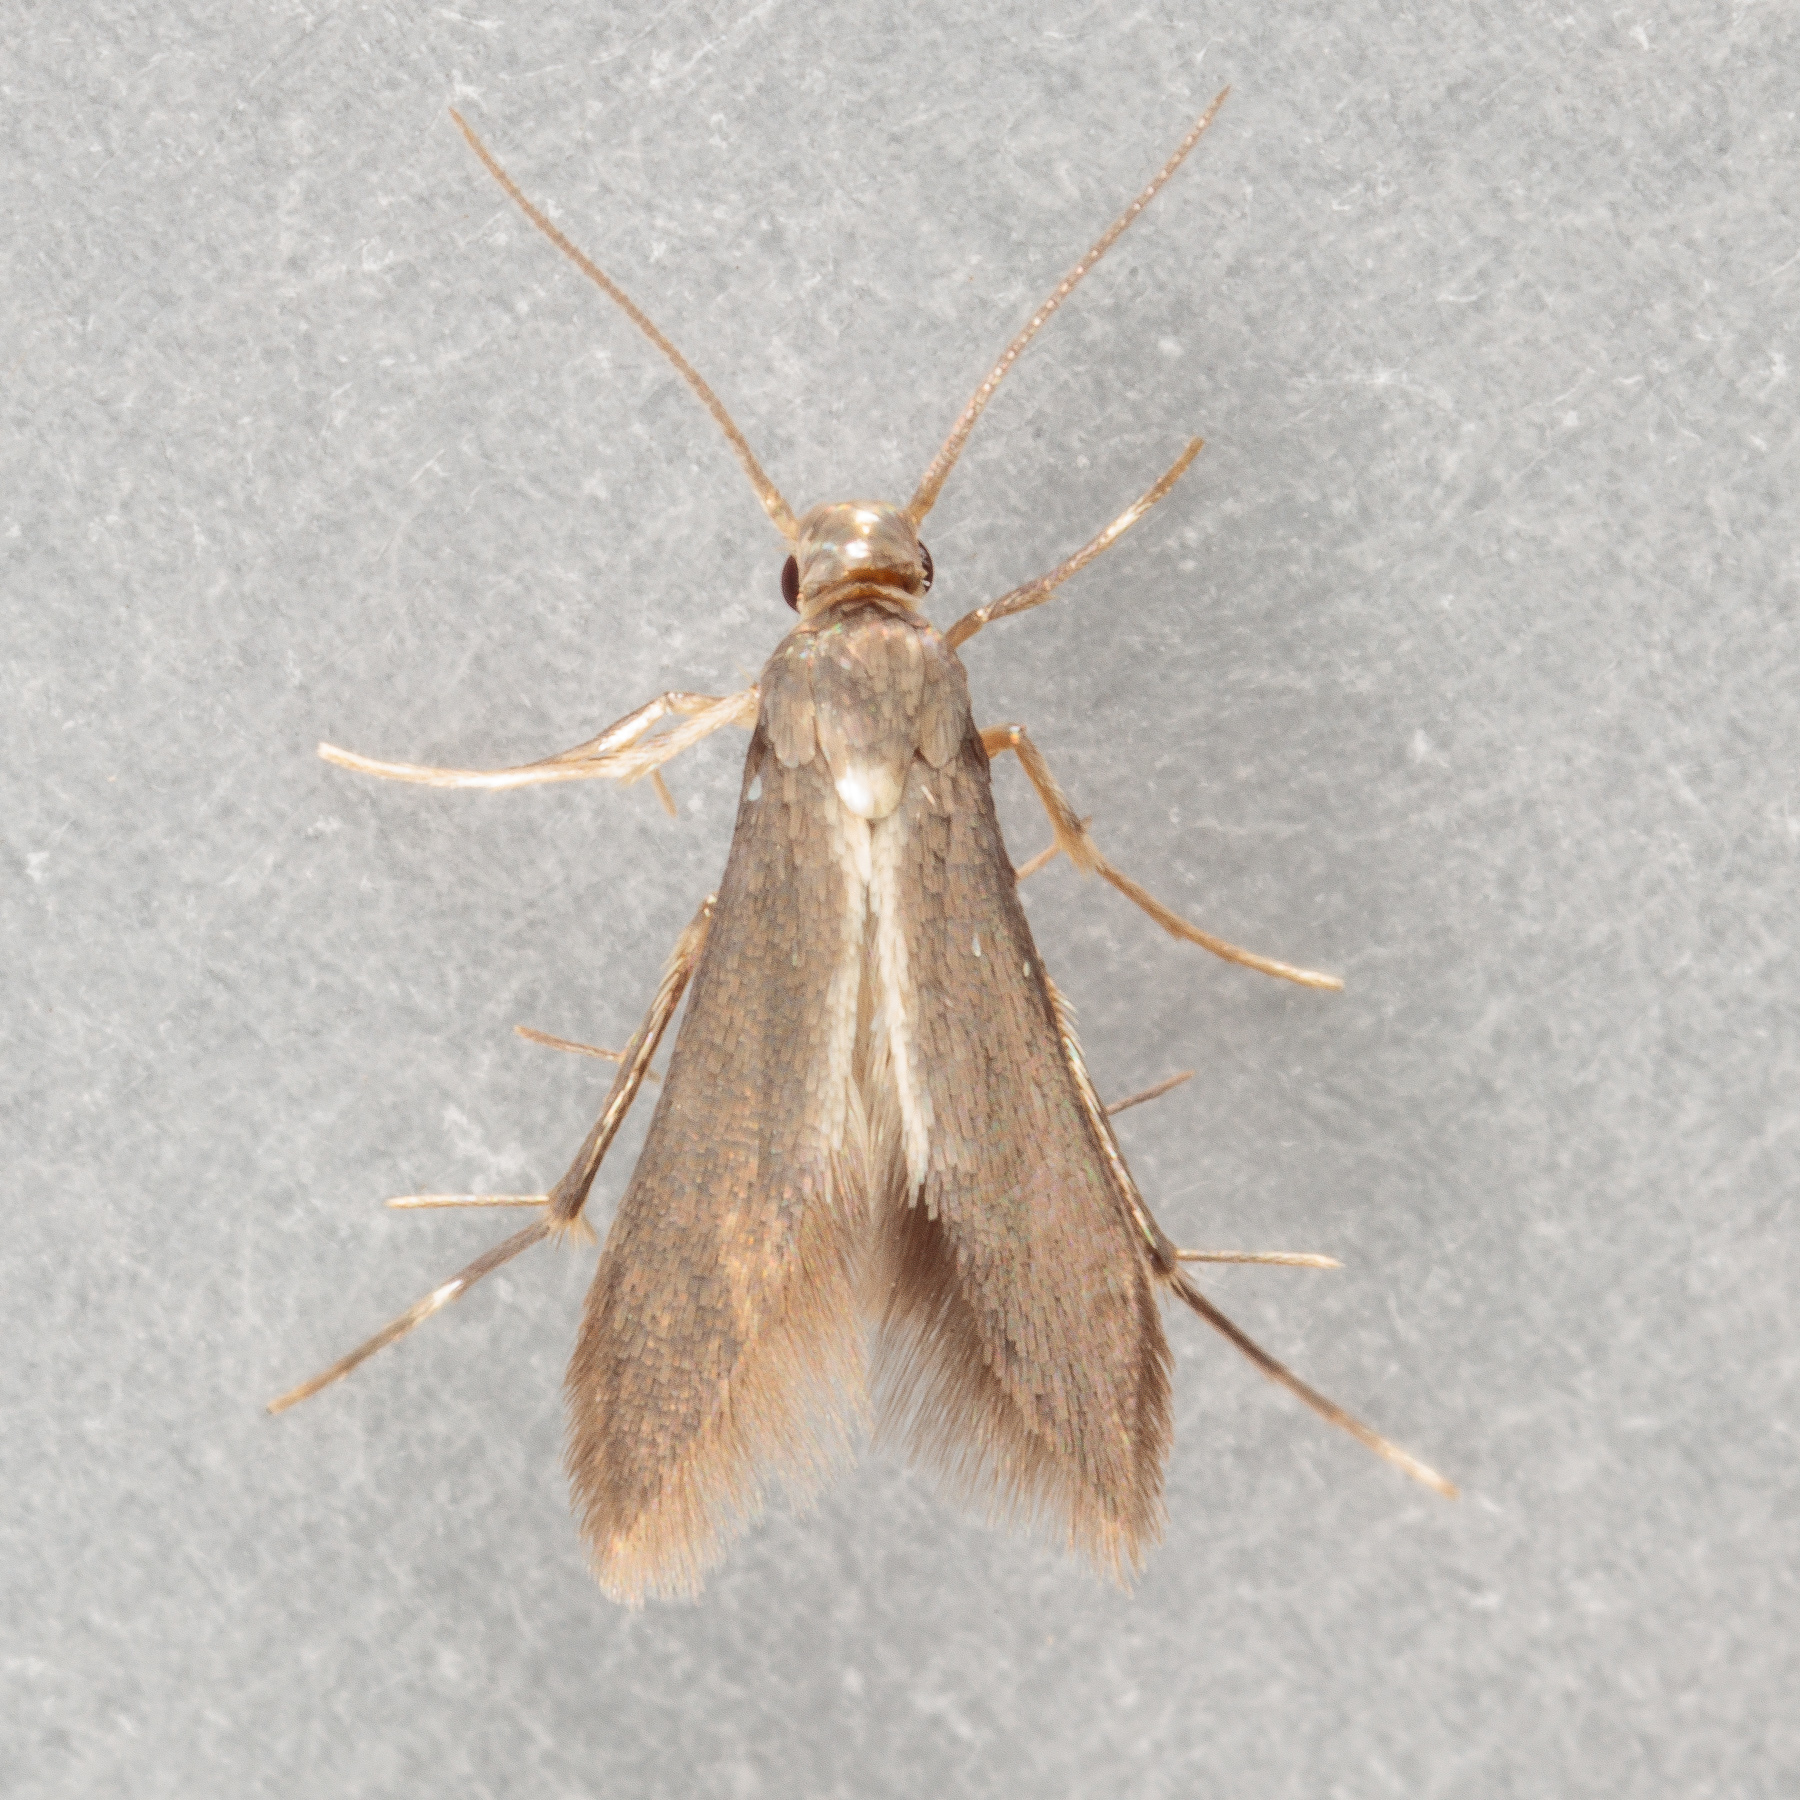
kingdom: Animalia
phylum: Arthropoda
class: Insecta
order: Lepidoptera
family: Schreckensteiniidae
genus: Schreckensteinia
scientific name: Schreckensteinia erythriella
